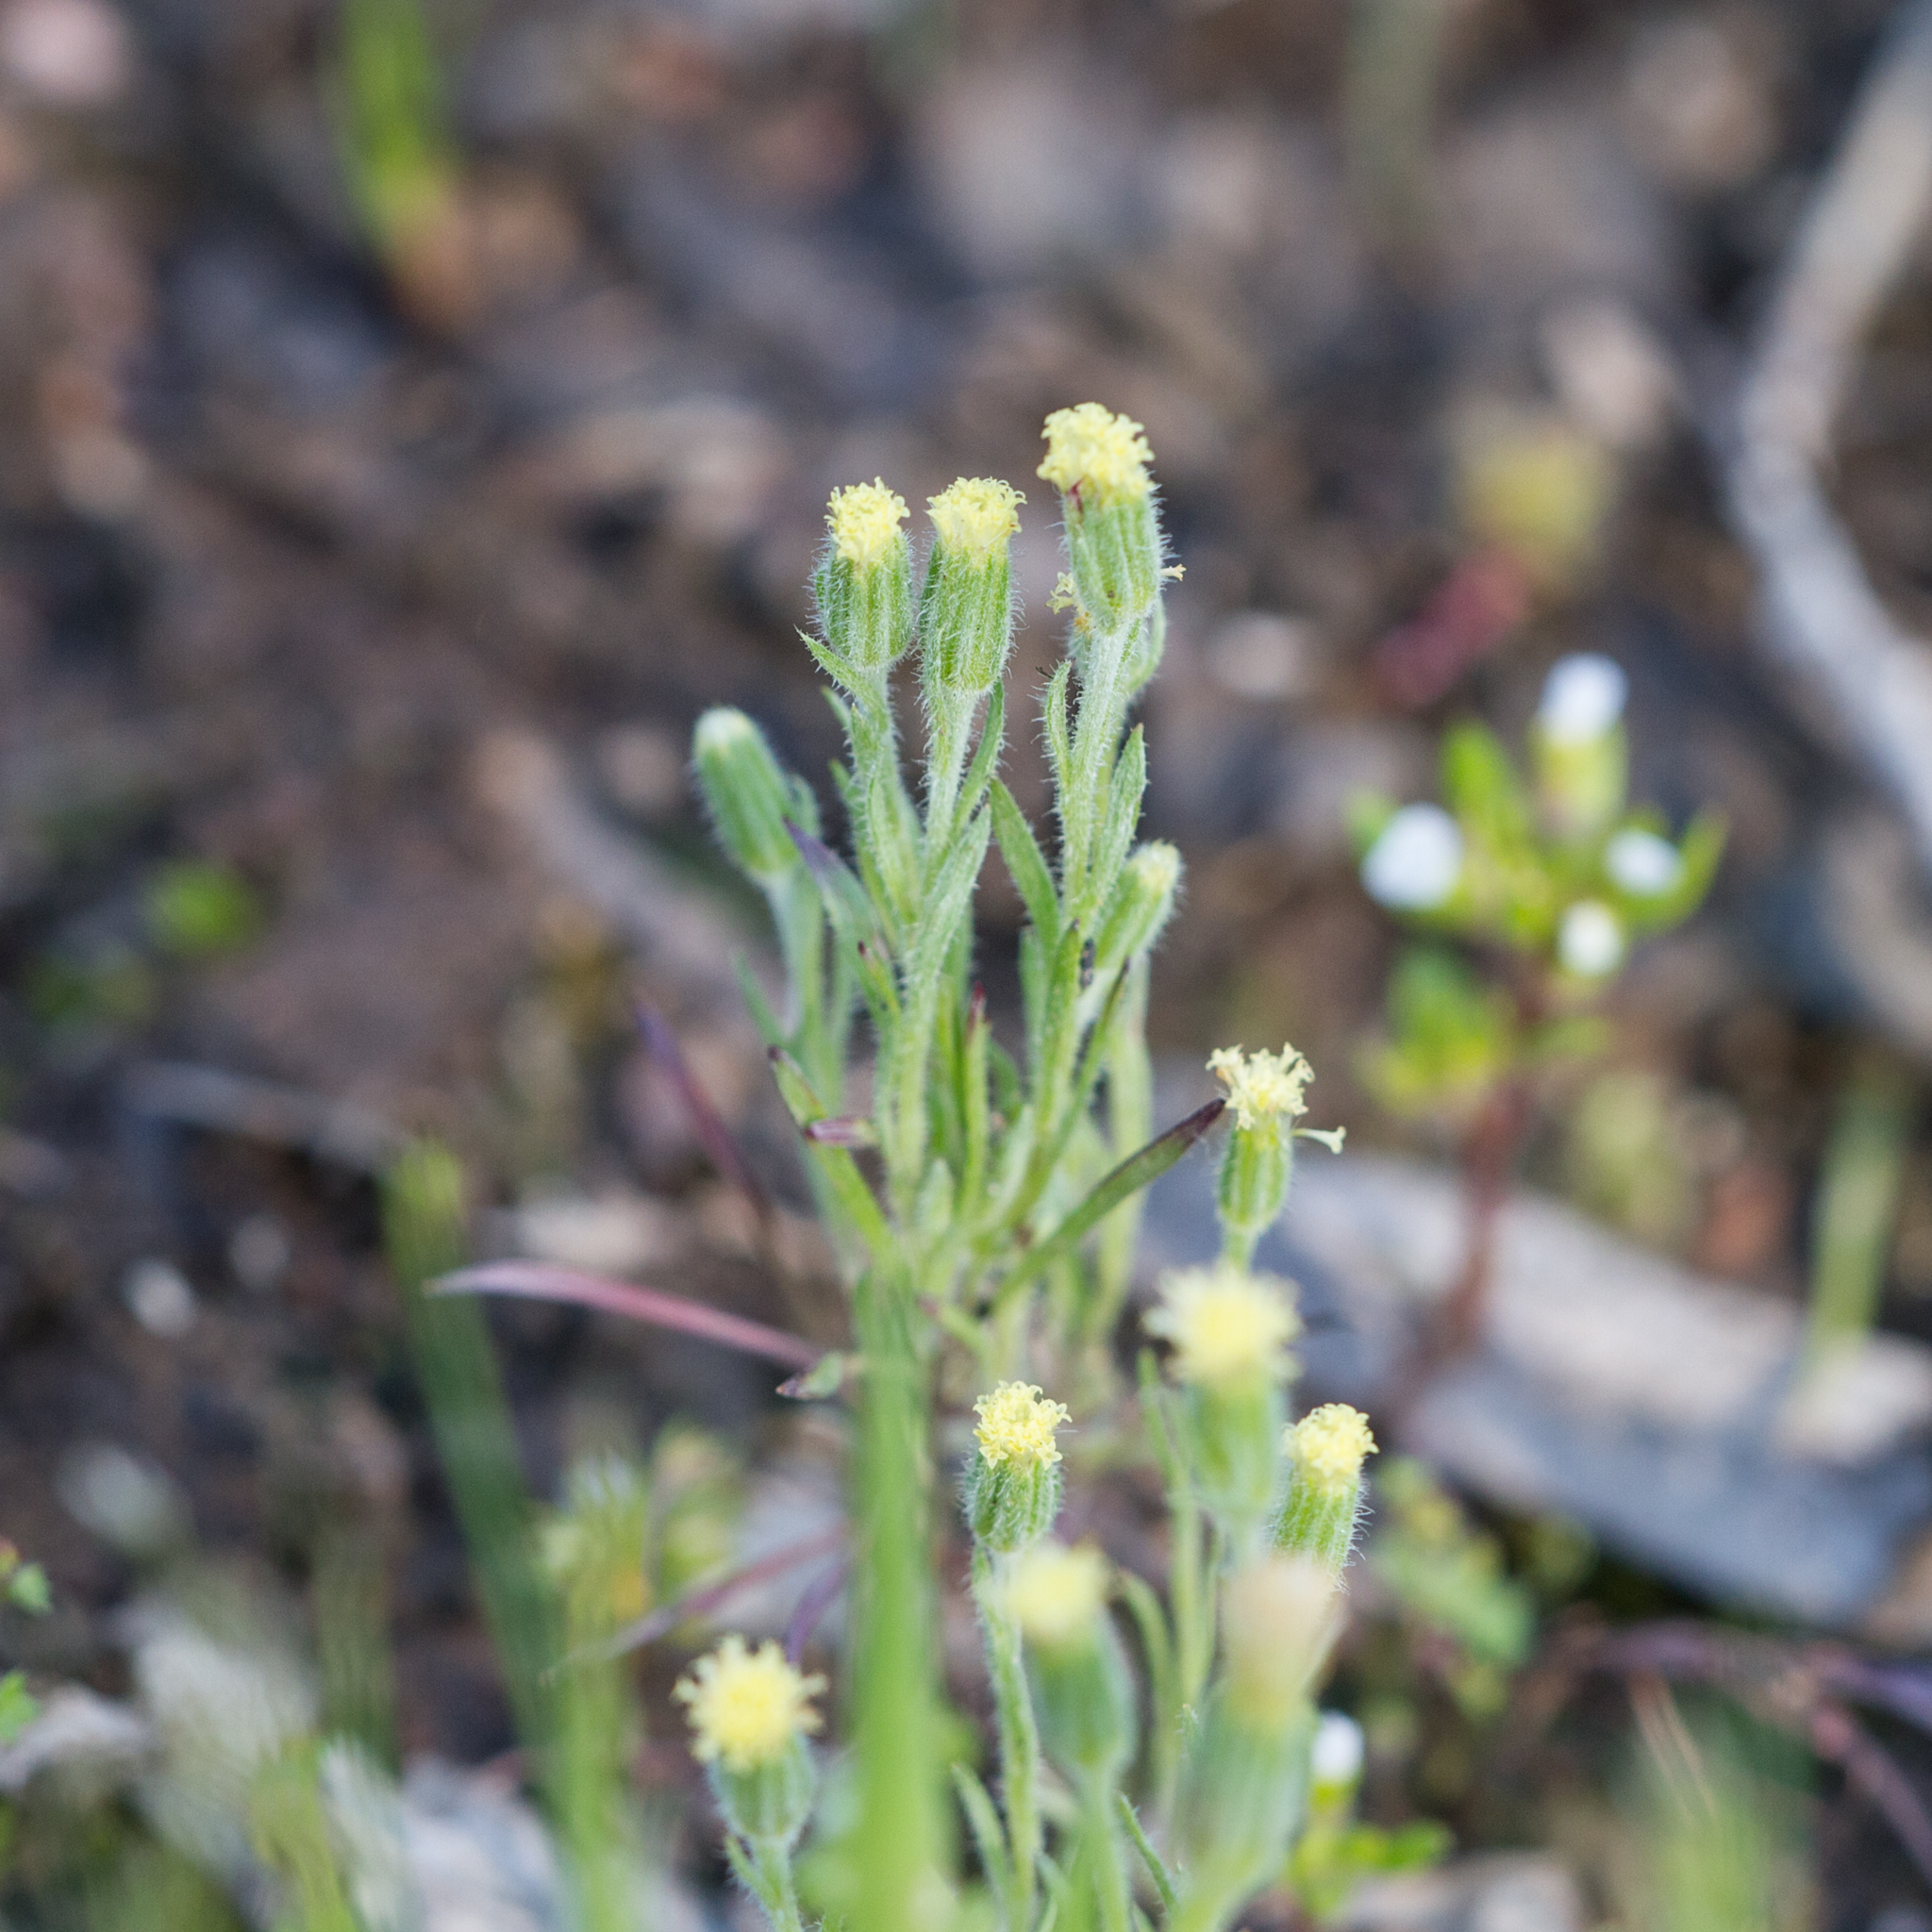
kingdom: Plantae
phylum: Tracheophyta
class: Magnoliopsida
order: Asterales
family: Asteraceae
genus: Millotia
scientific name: Millotia tenuifolia
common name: Soft millotia
